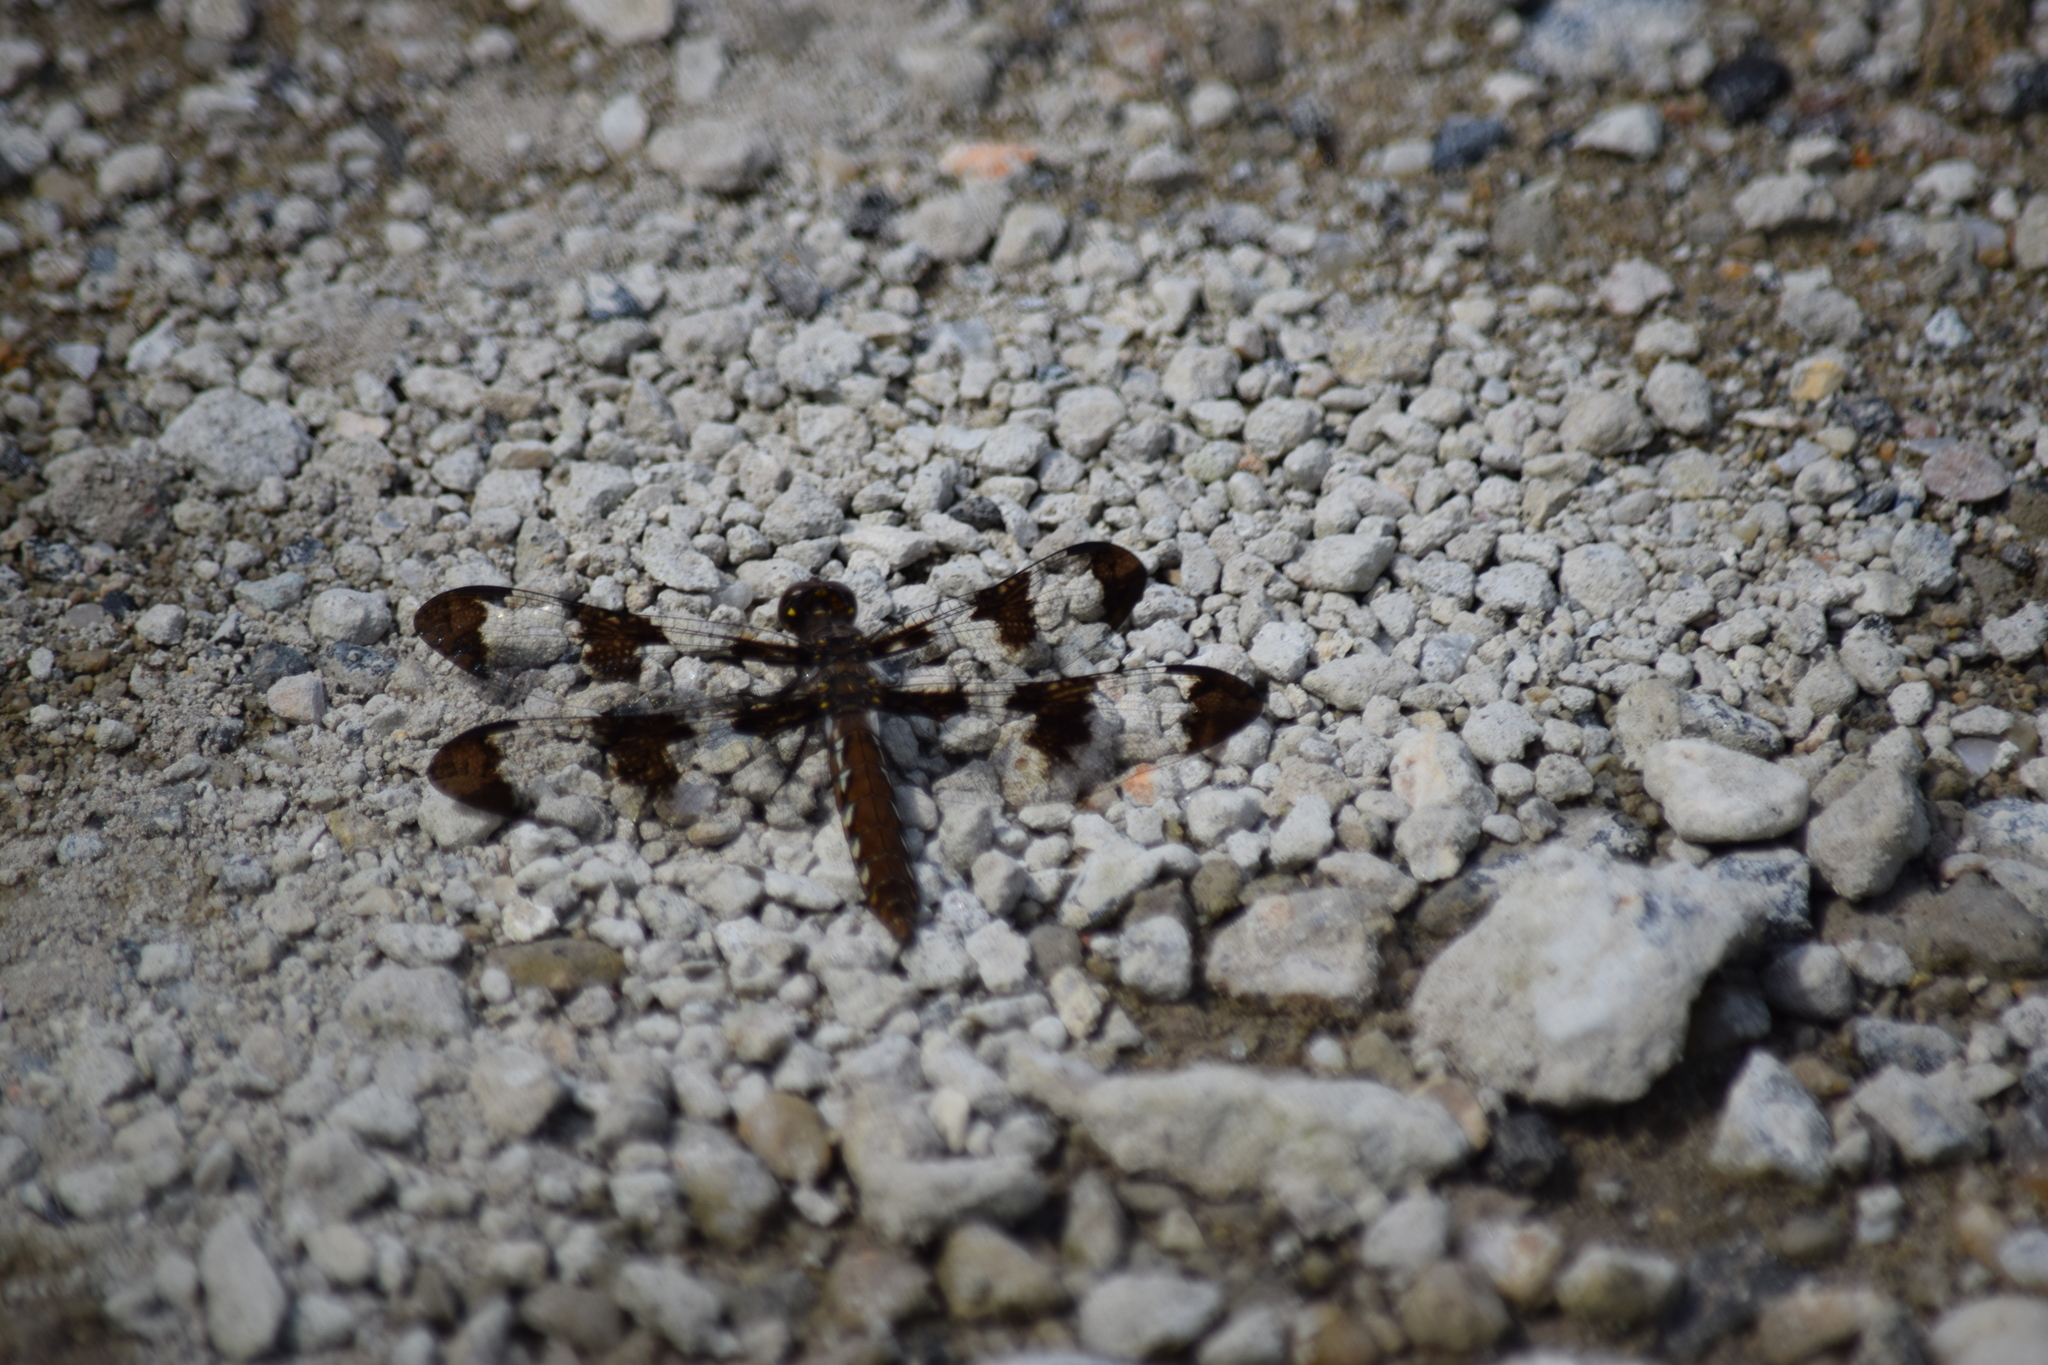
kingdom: Animalia
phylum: Arthropoda
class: Insecta
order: Odonata
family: Libellulidae
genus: Plathemis
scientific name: Plathemis lydia
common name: Common whitetail
